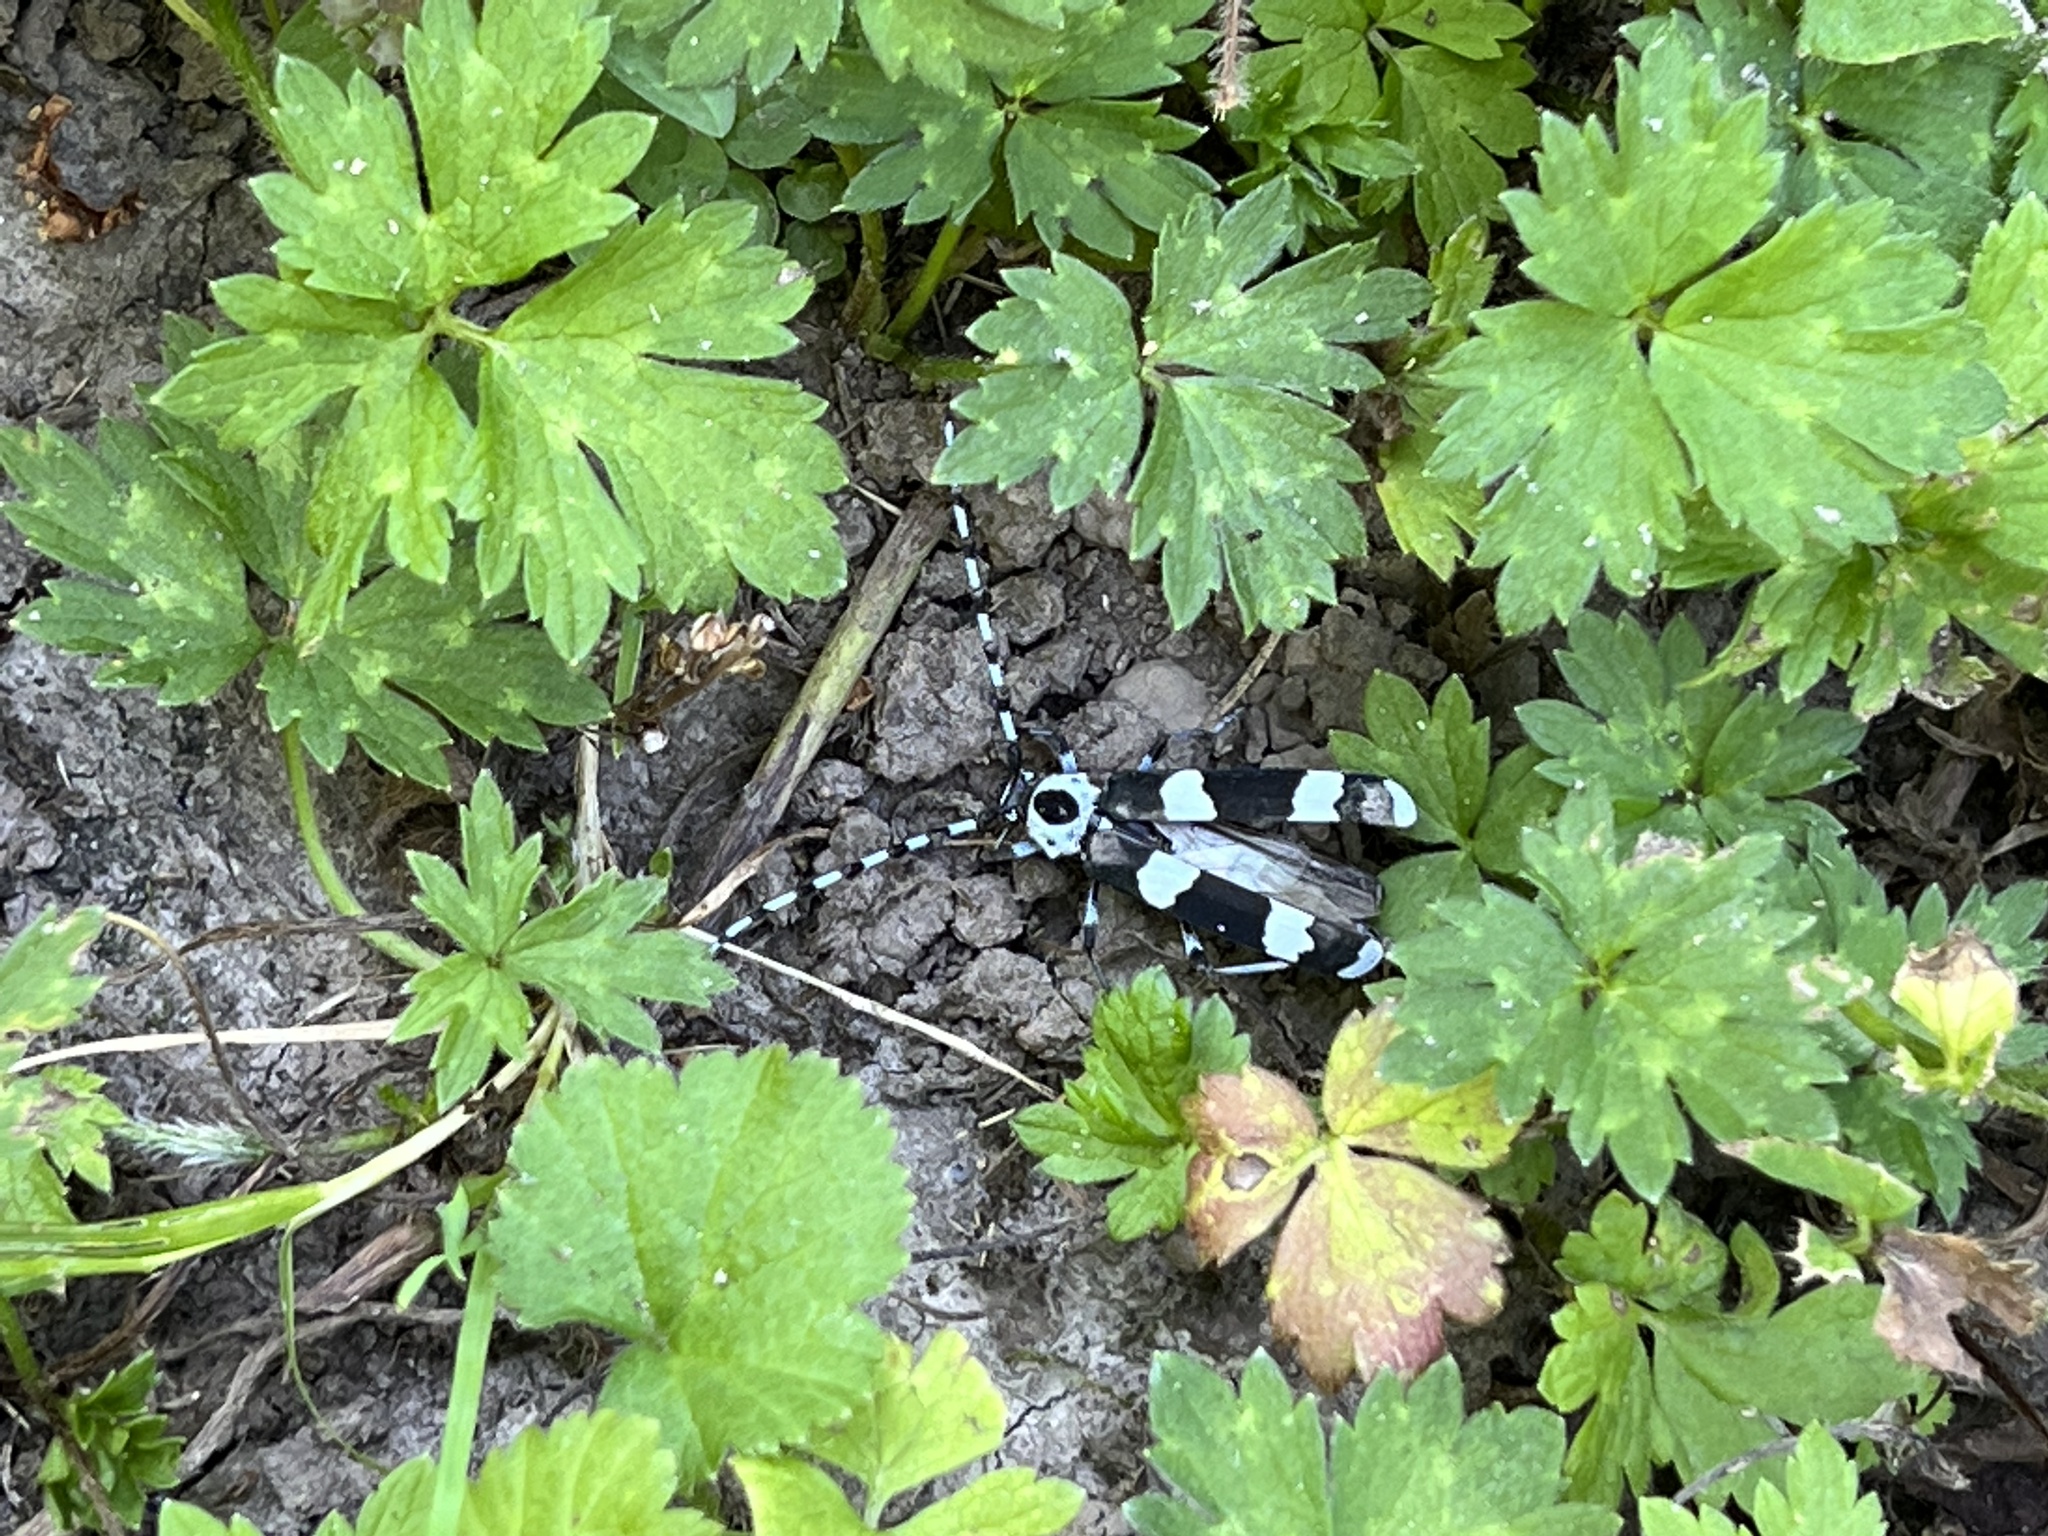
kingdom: Animalia
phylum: Arthropoda
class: Insecta
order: Coleoptera
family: Cerambycidae
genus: Rosalia
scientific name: Rosalia funebris
